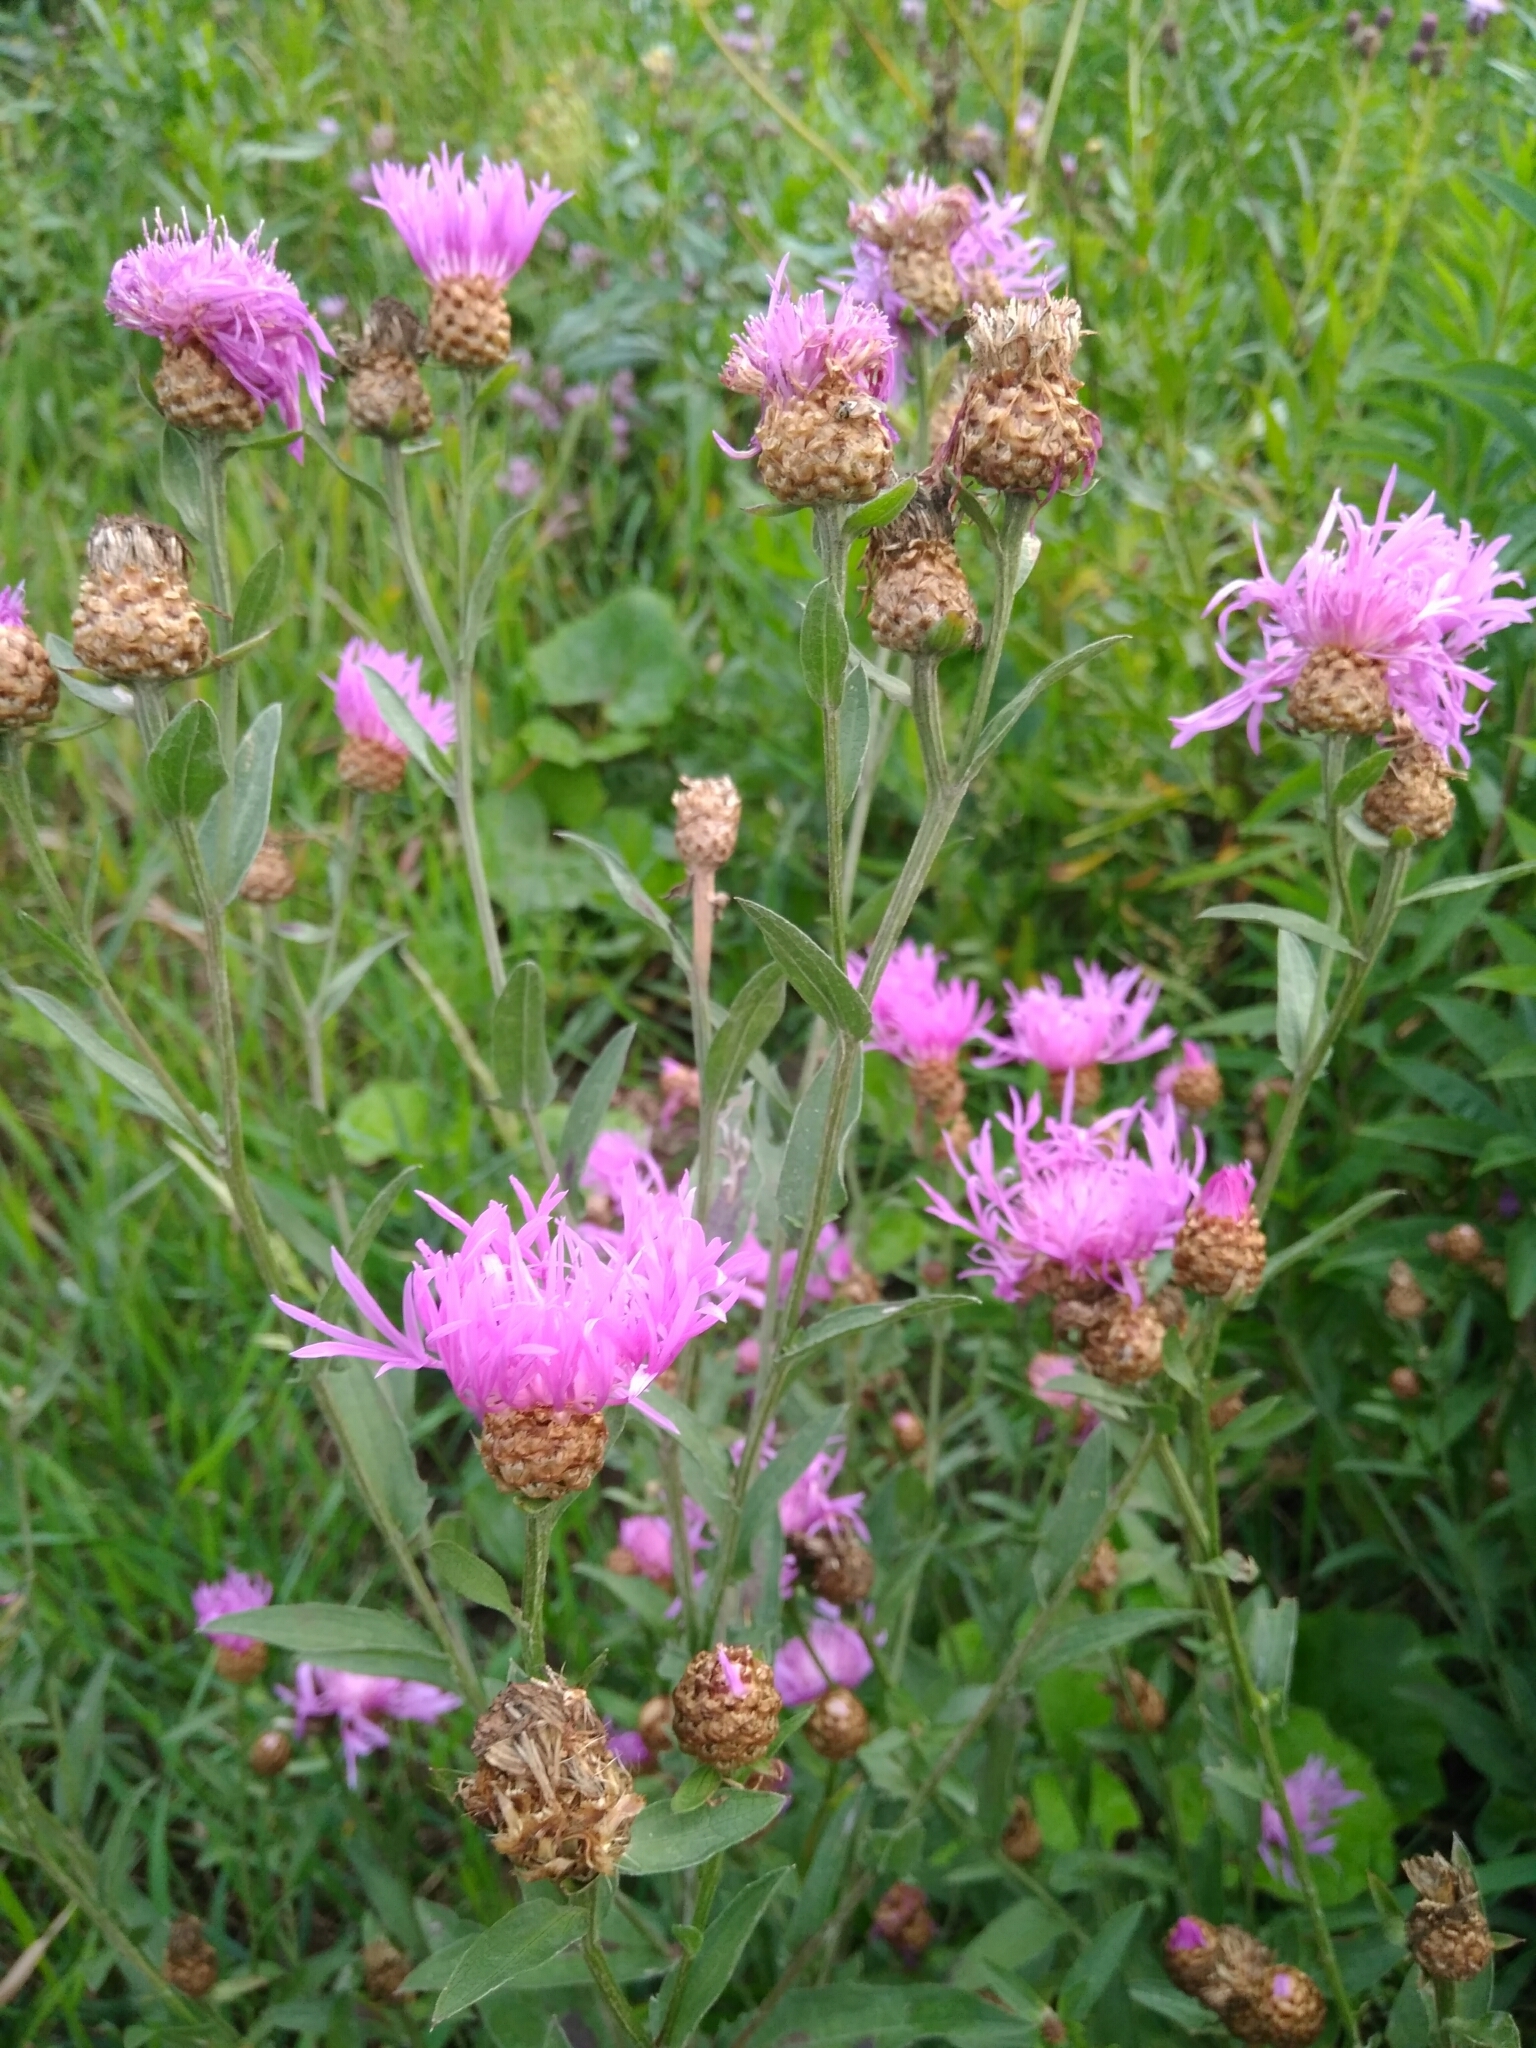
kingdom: Plantae
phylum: Tracheophyta
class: Magnoliopsida
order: Asterales
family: Asteraceae
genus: Centaurea
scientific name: Centaurea jacea
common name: Brown knapweed
